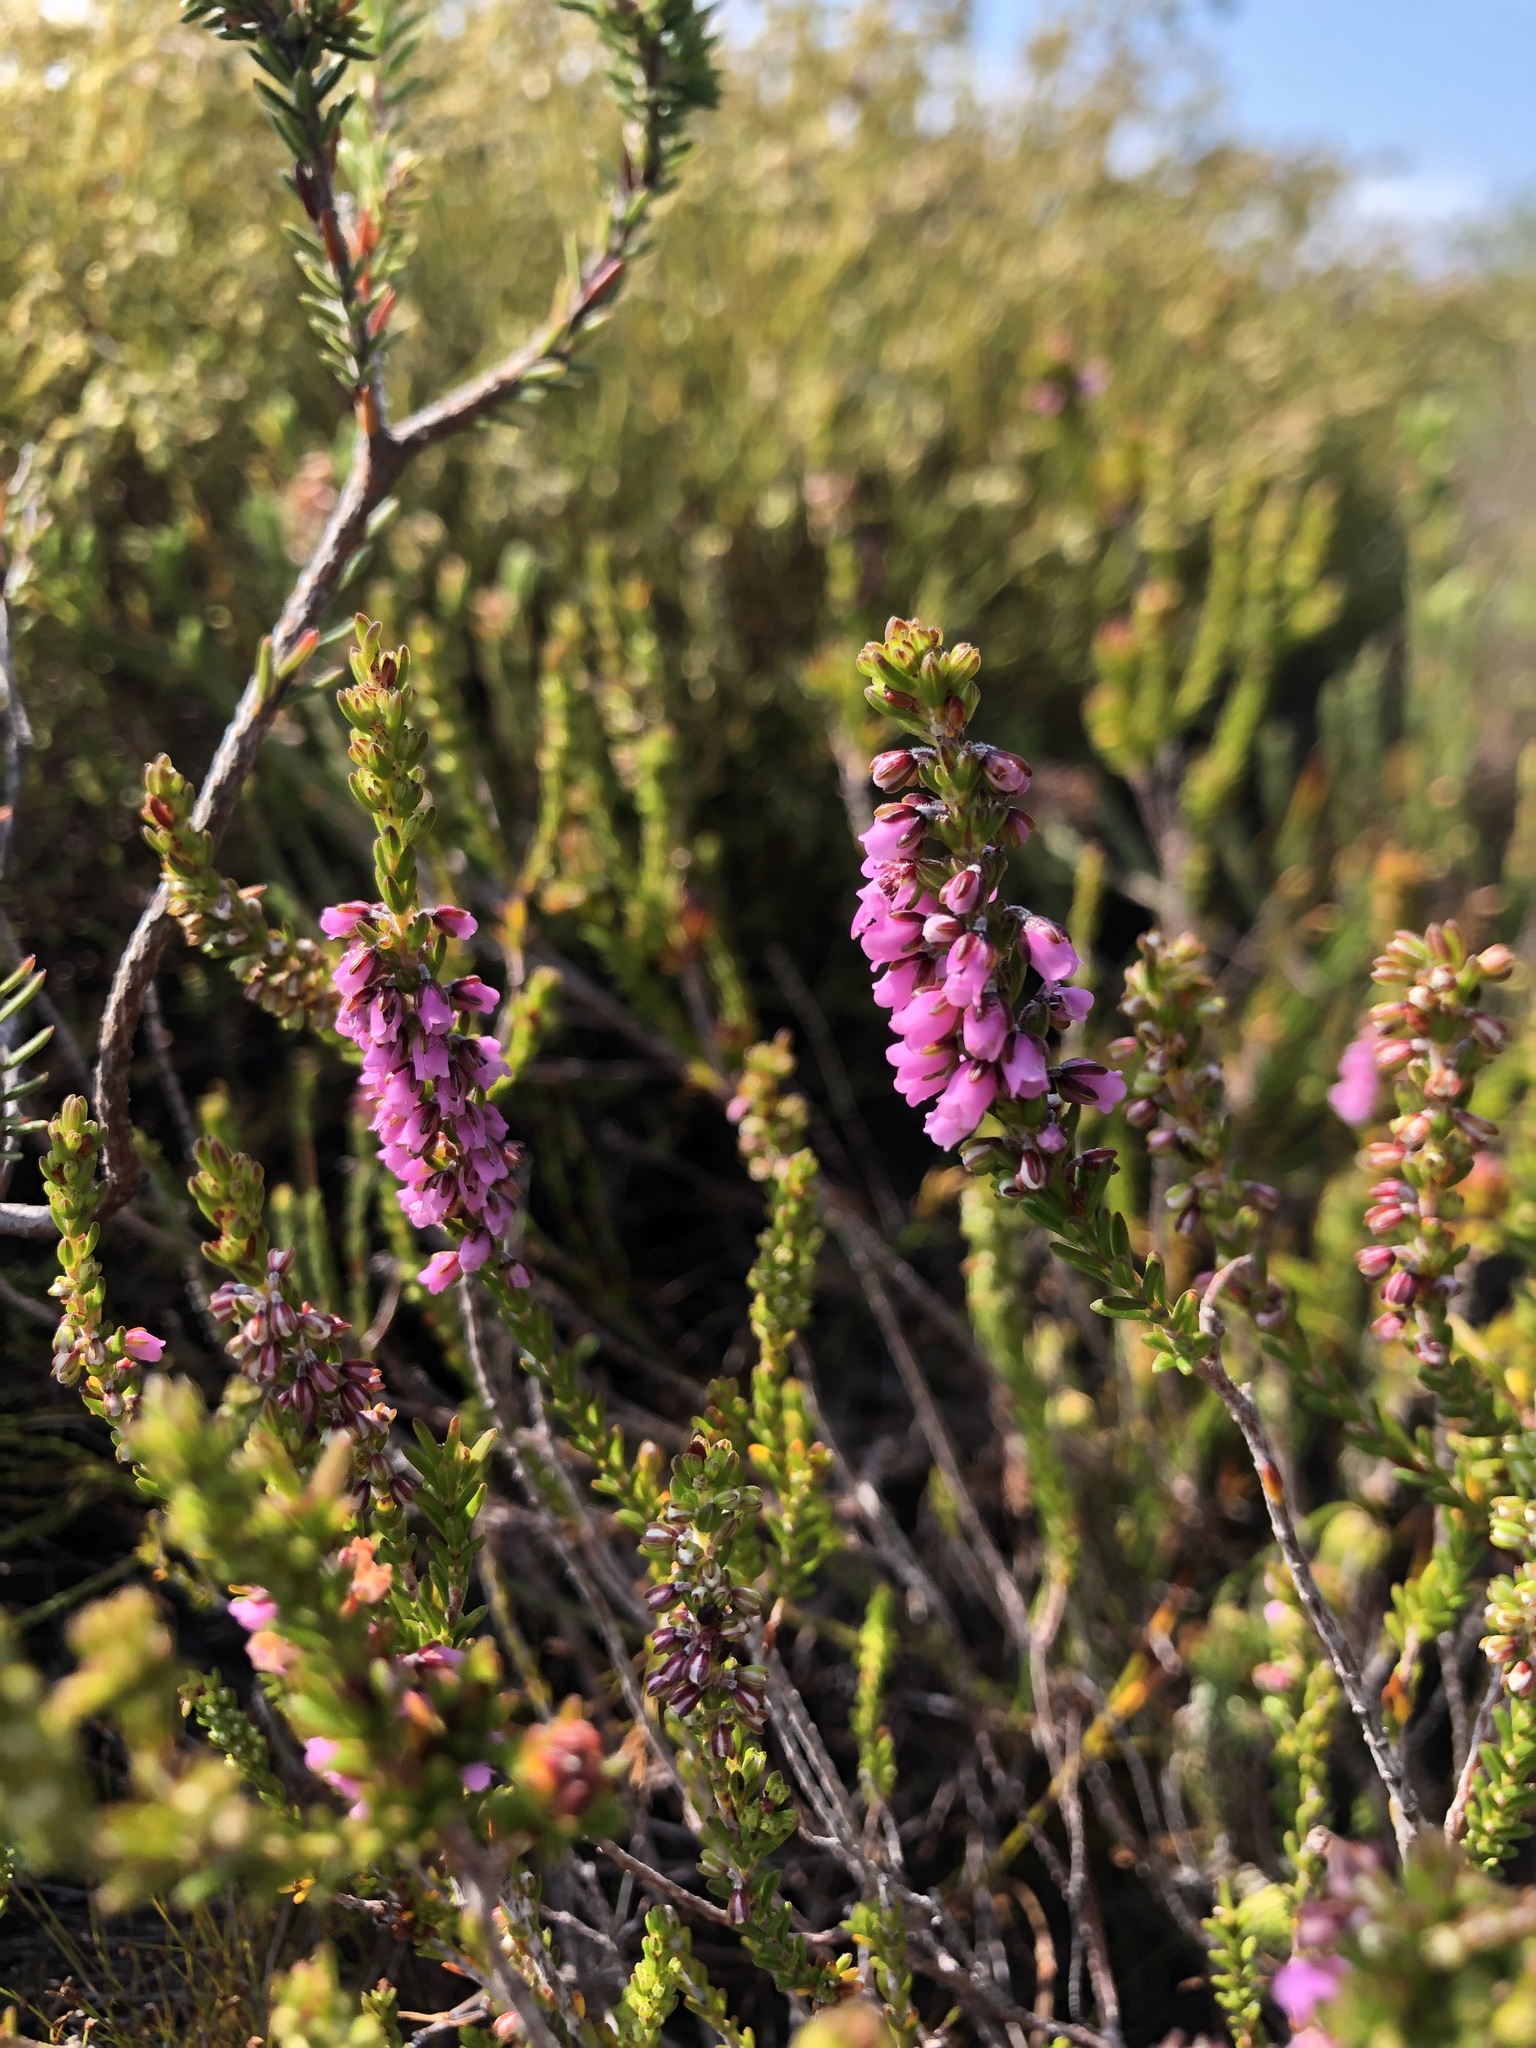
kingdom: Plantae
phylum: Tracheophyta
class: Magnoliopsida
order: Ericales
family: Ericaceae
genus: Erica
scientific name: Erica pulchella
